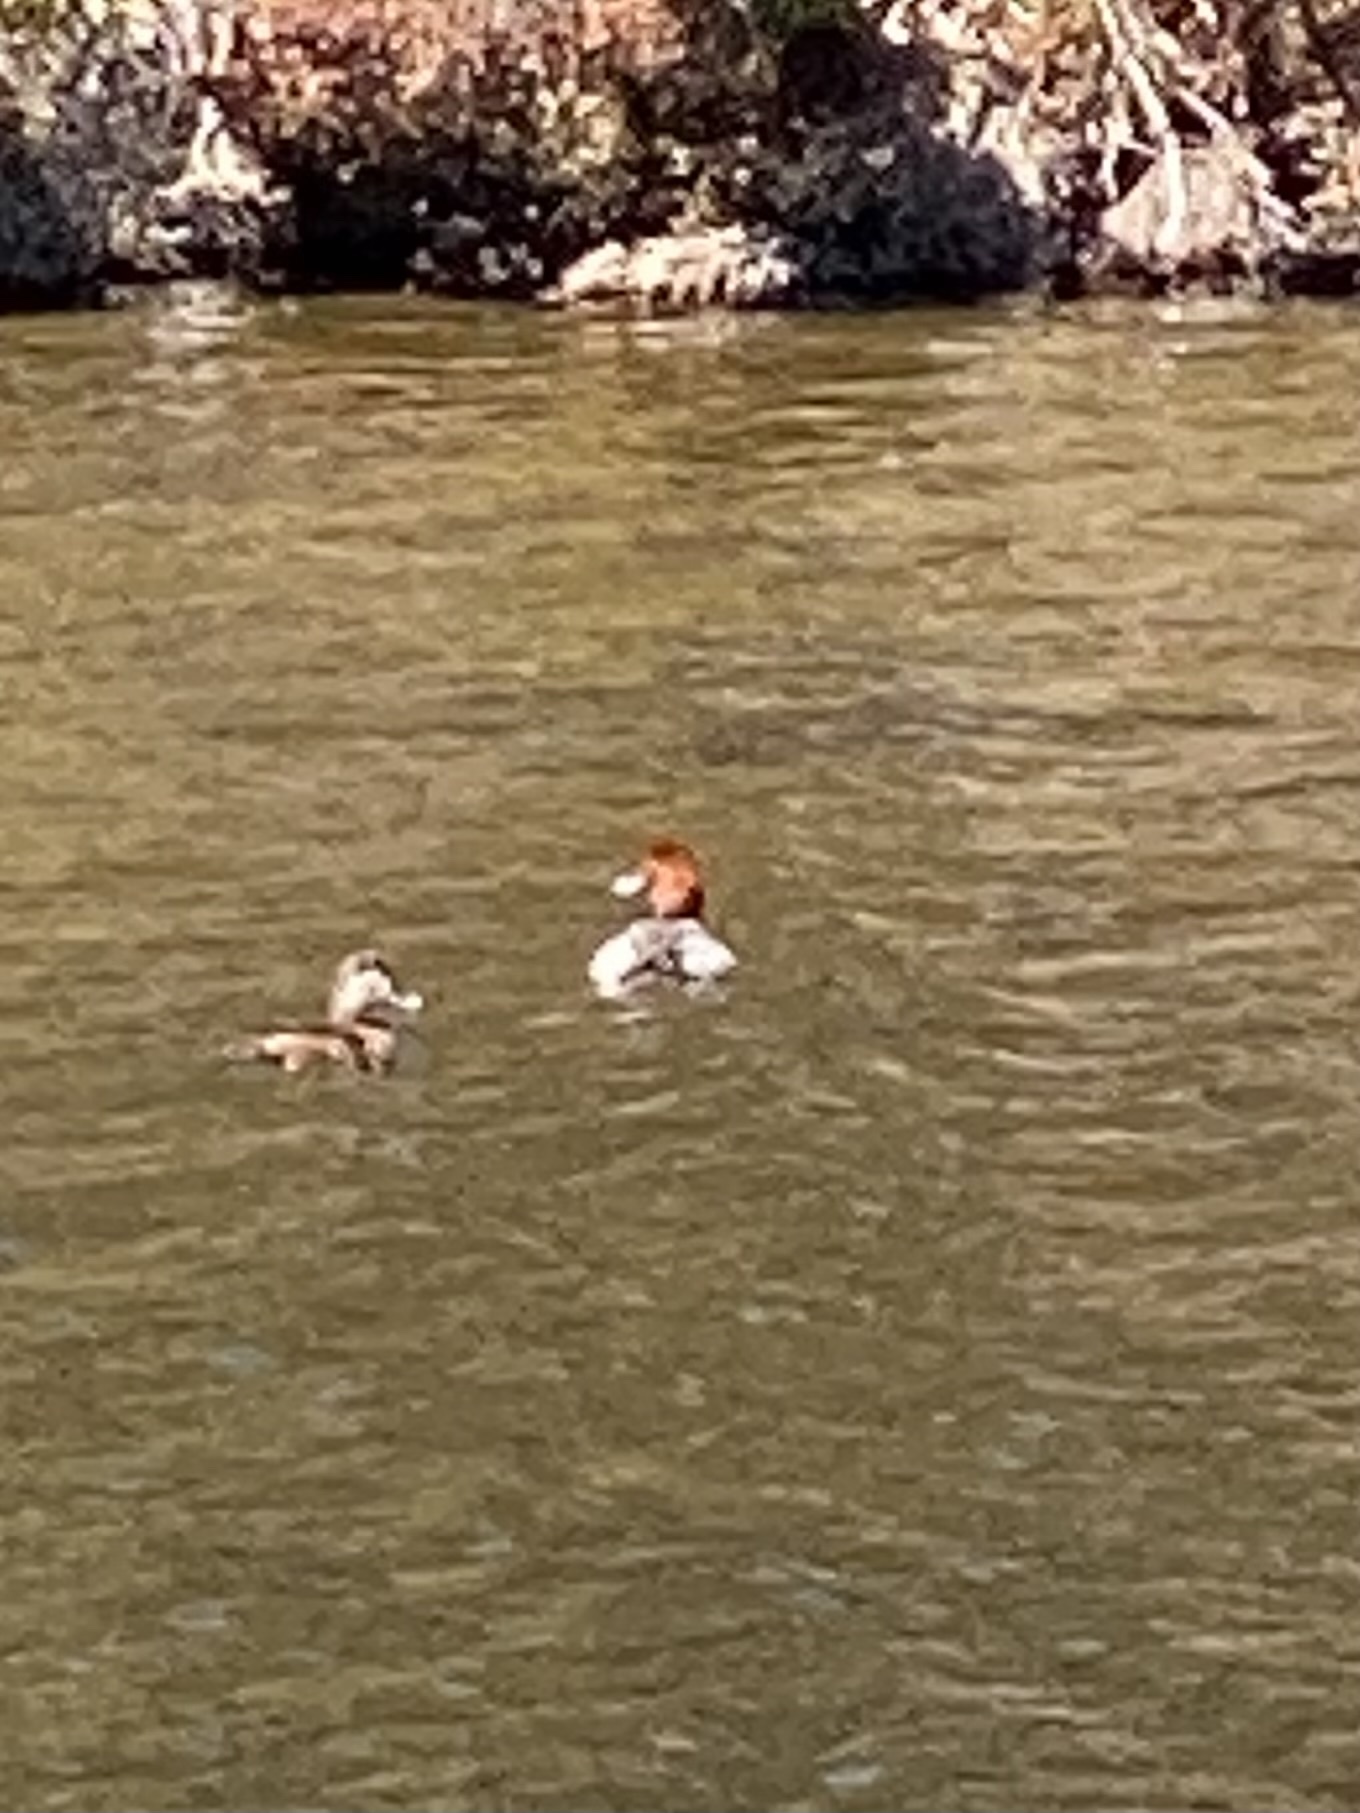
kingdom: Animalia
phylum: Chordata
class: Aves
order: Anseriformes
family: Anatidae
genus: Aythya
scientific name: Aythya americana
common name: Redhead
